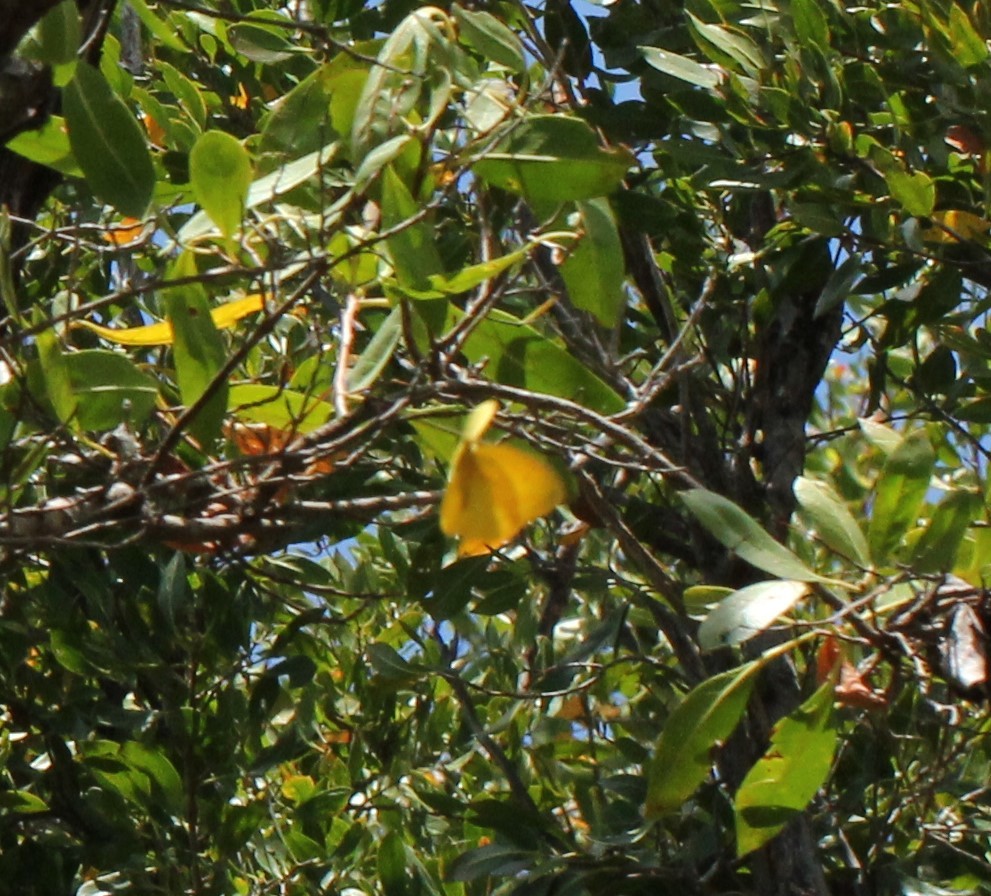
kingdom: Animalia
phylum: Arthropoda
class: Insecta
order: Lepidoptera
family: Pieridae
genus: Phoebis
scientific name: Phoebis agarithe
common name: Large orange sulphur
